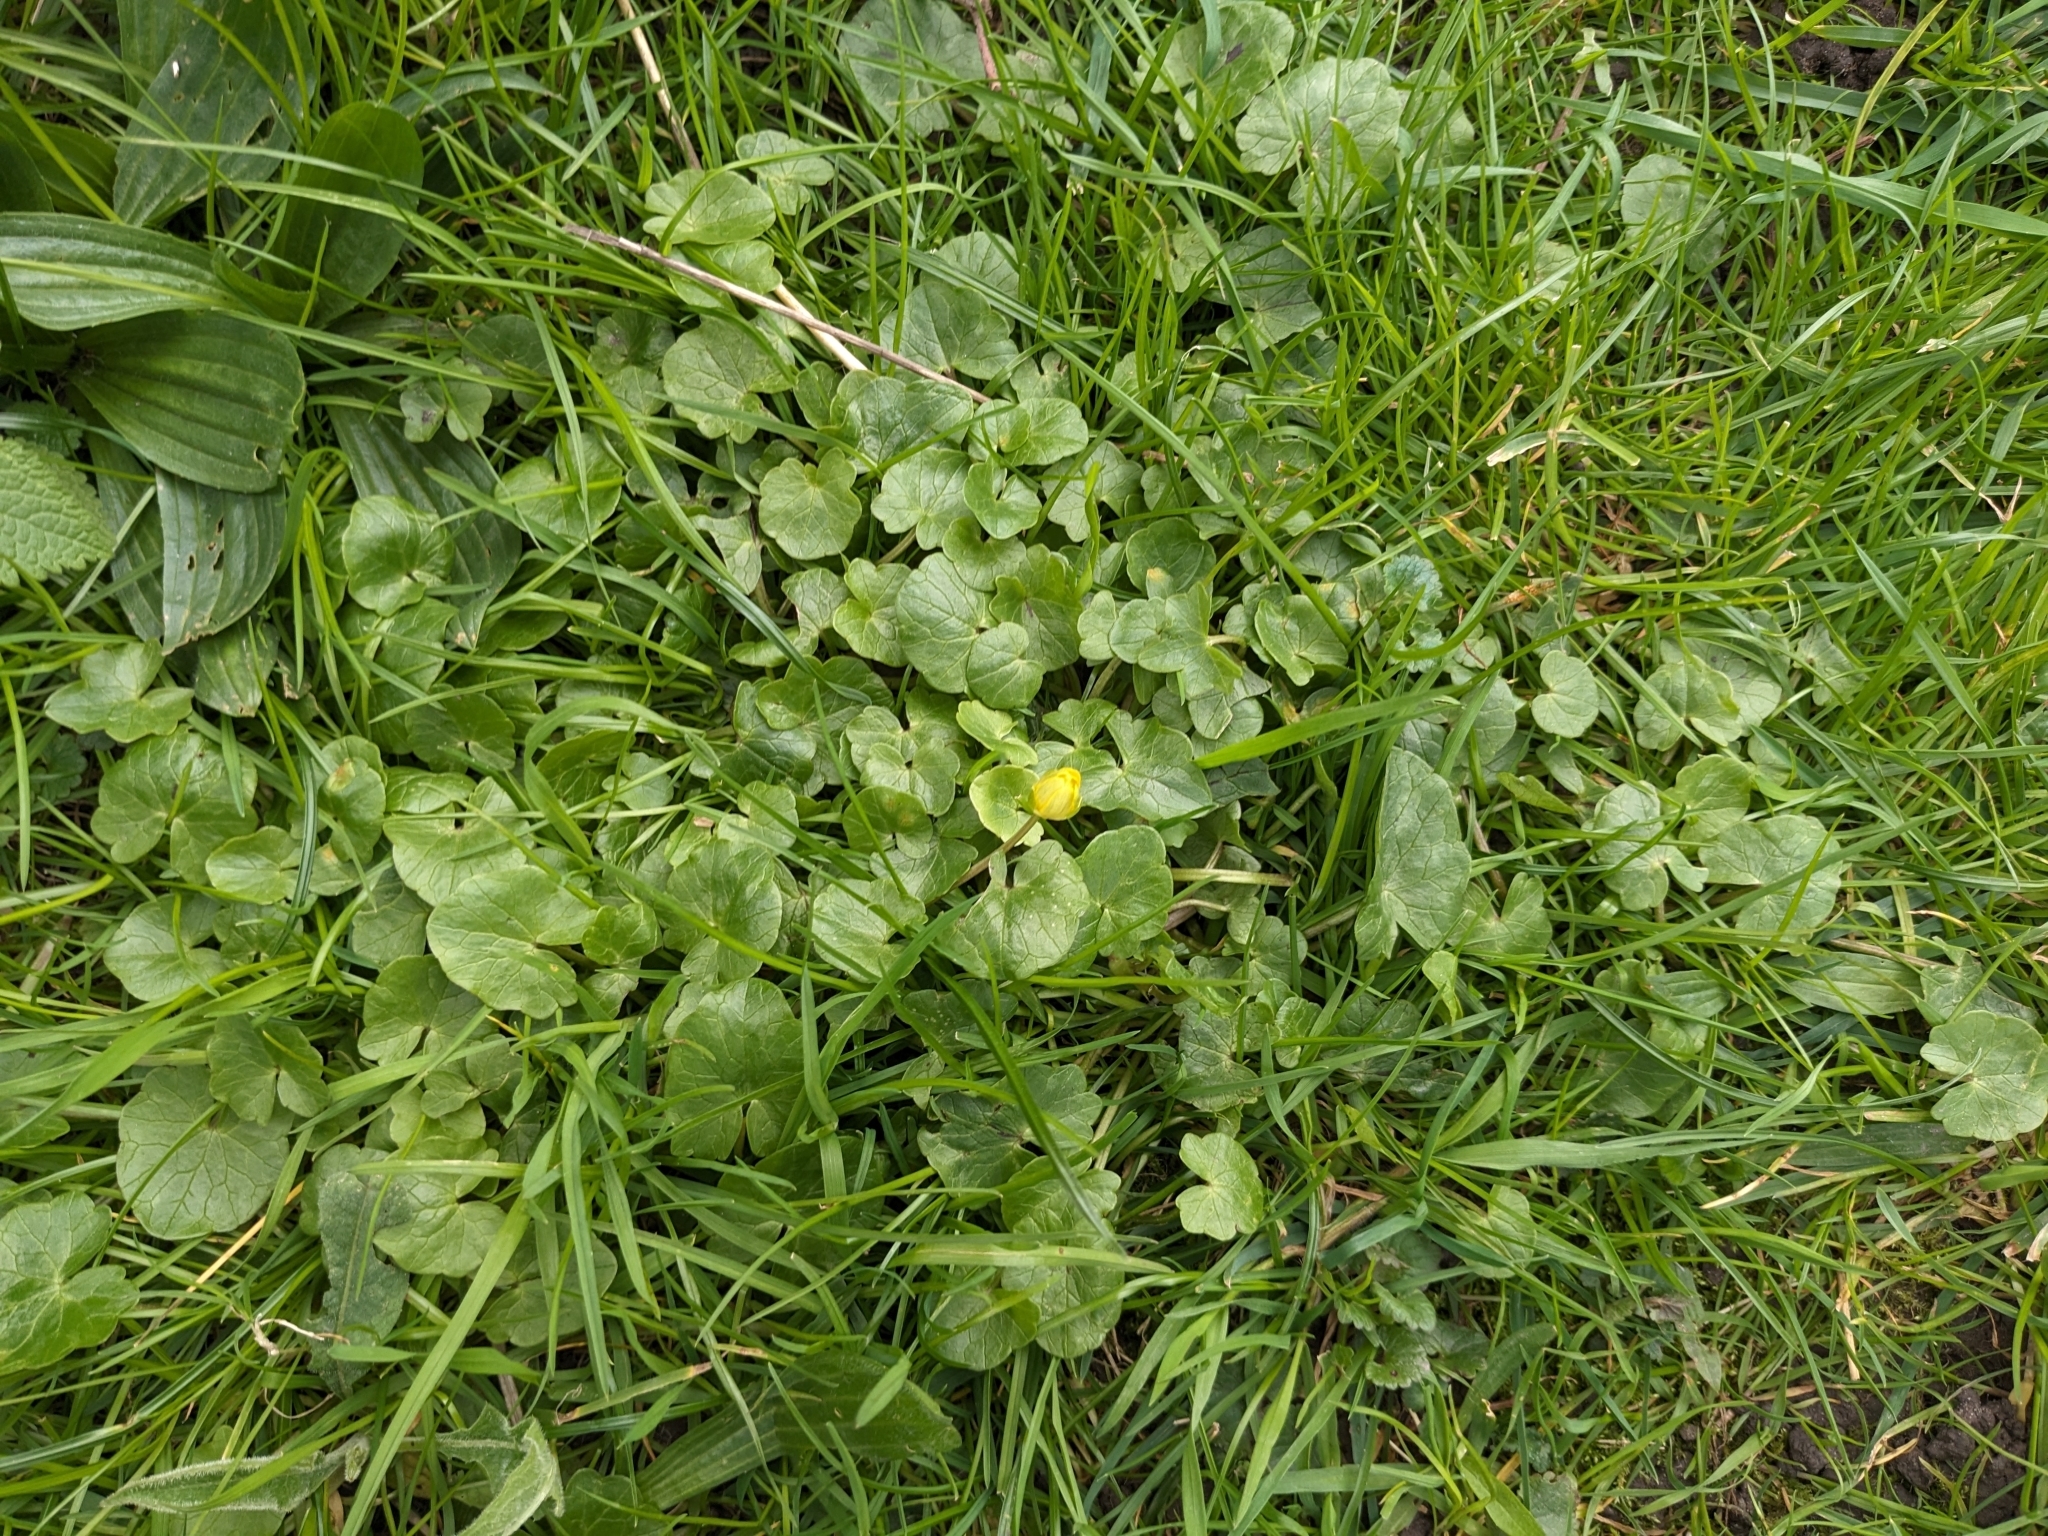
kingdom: Plantae
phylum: Tracheophyta
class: Magnoliopsida
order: Ranunculales
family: Ranunculaceae
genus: Ficaria
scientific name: Ficaria verna
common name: Lesser celandine
